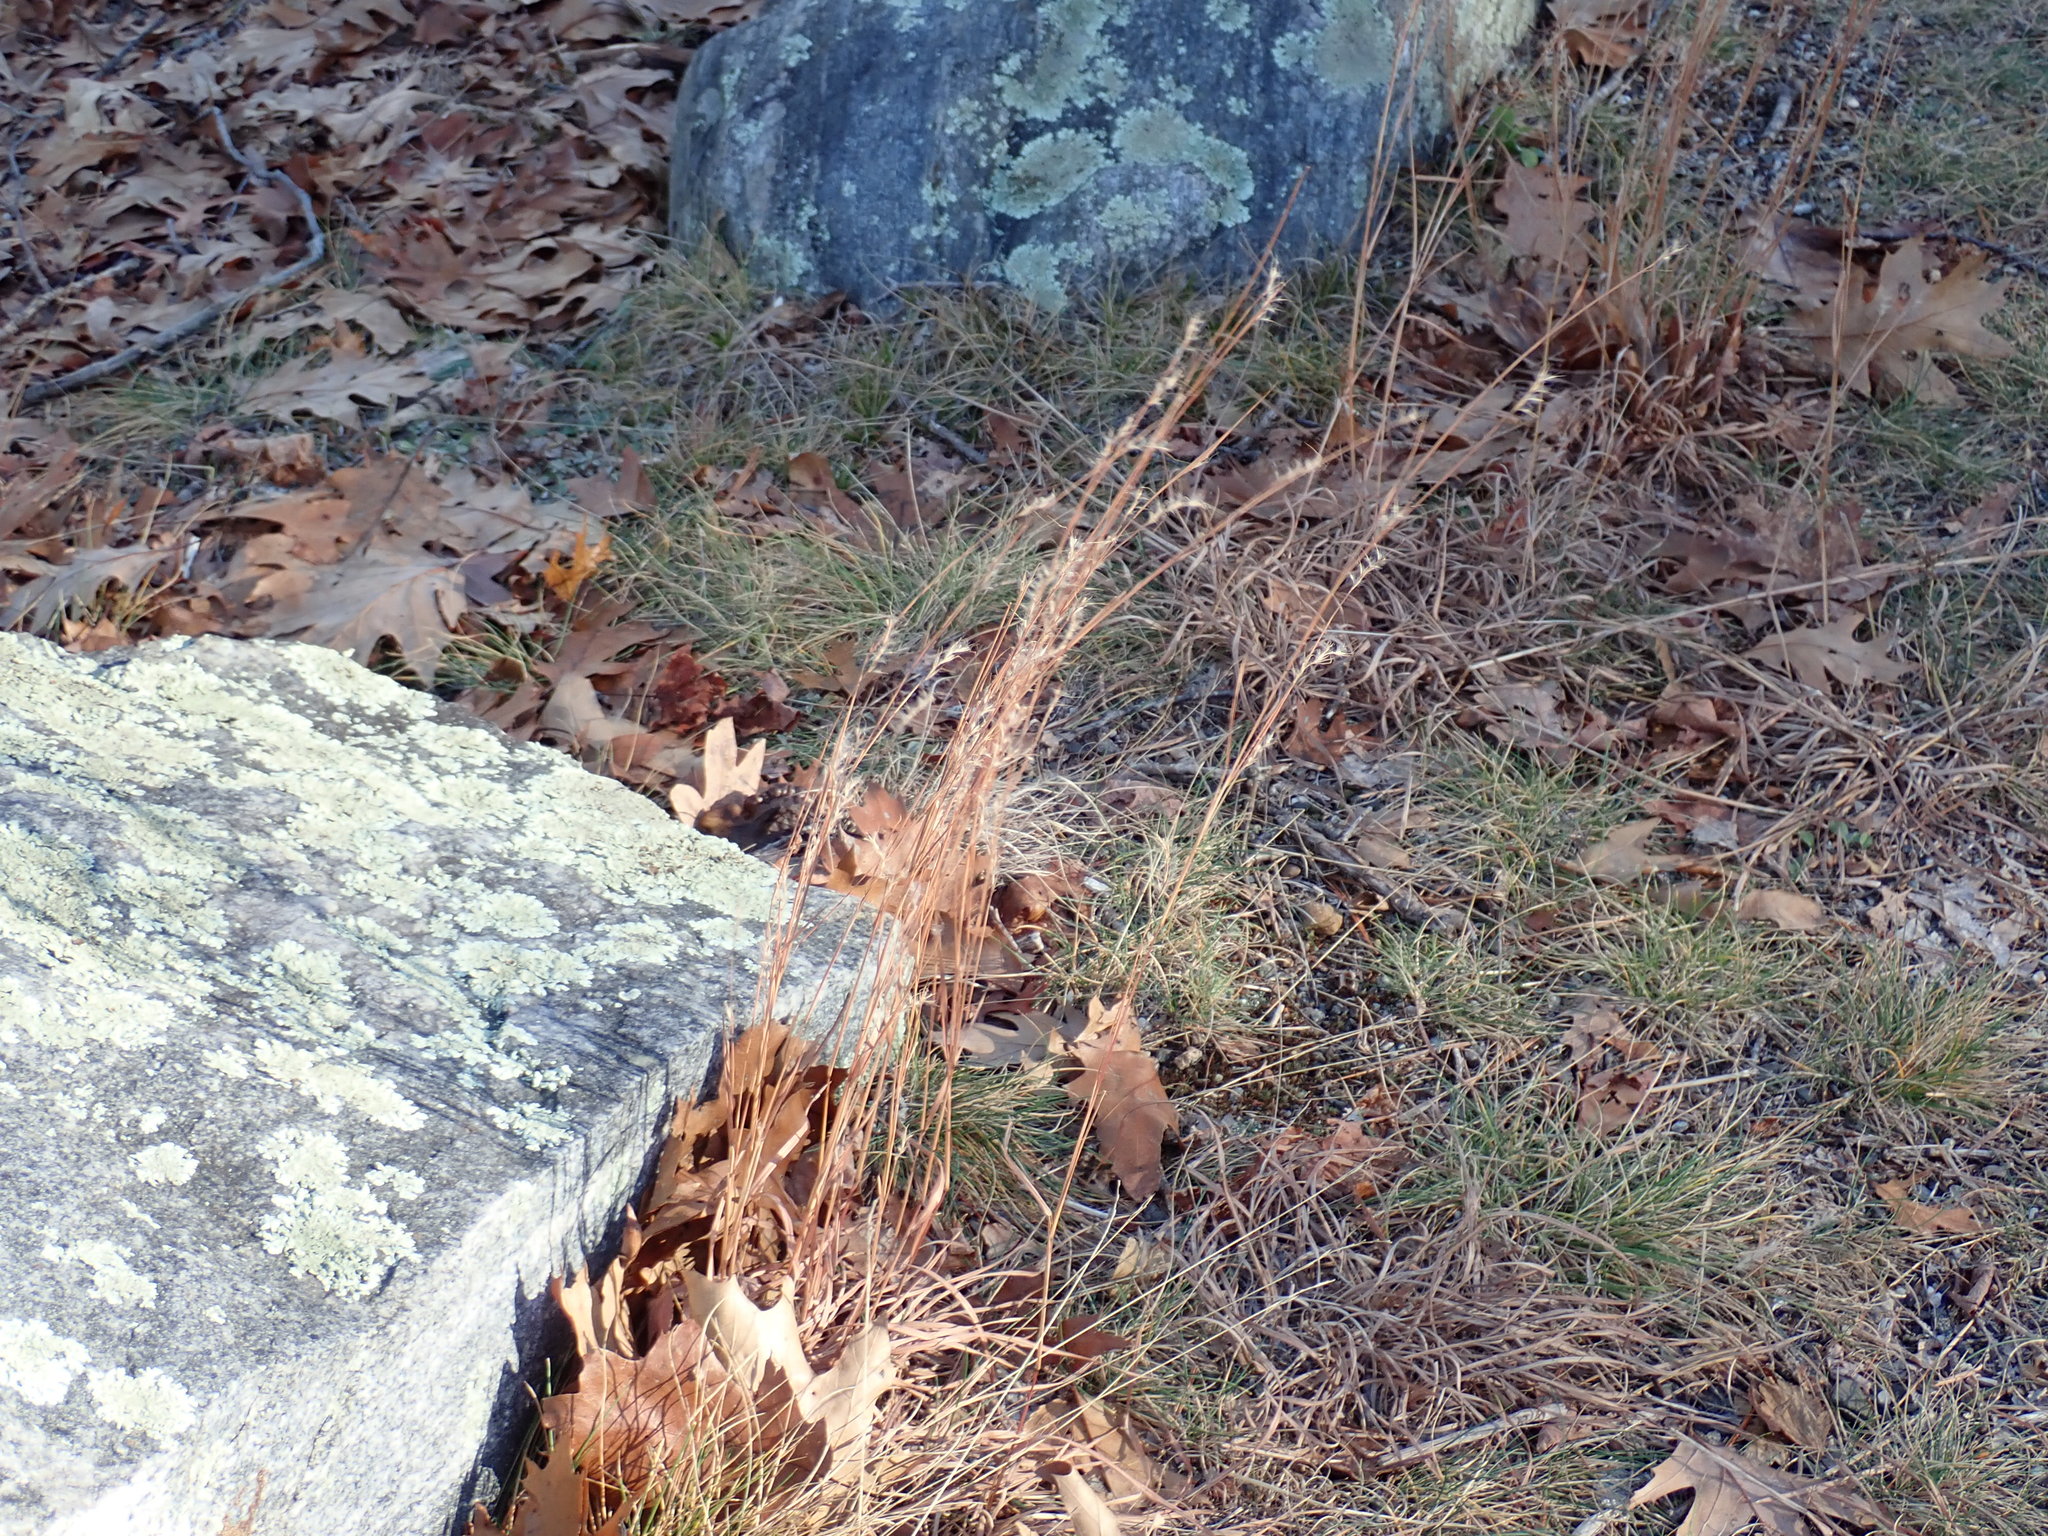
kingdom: Plantae
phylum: Tracheophyta
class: Liliopsida
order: Poales
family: Poaceae
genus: Schizachyrium
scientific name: Schizachyrium scoparium
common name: Little bluestem
